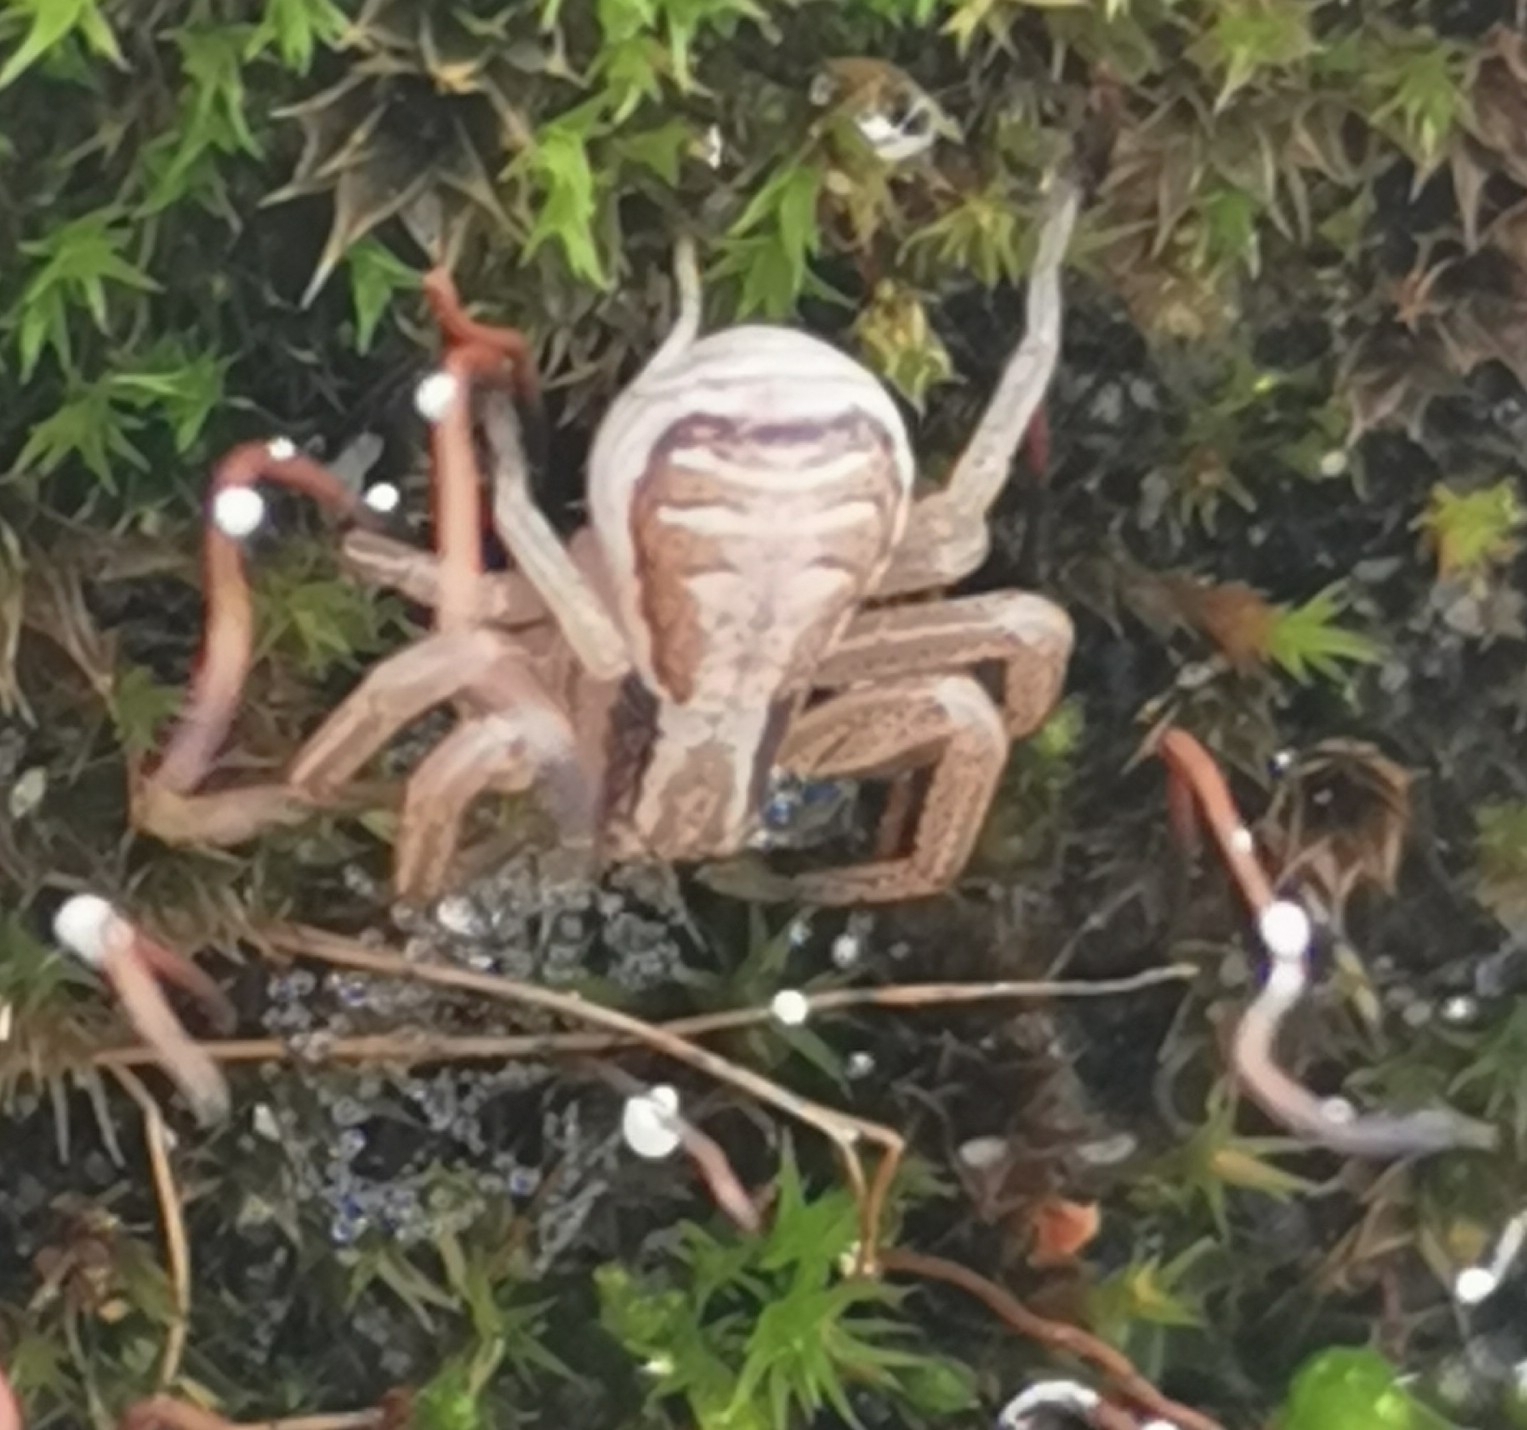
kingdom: Animalia
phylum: Arthropoda
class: Arachnida
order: Araneae
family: Thomisidae
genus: Xysticus
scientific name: Xysticus ulmi
